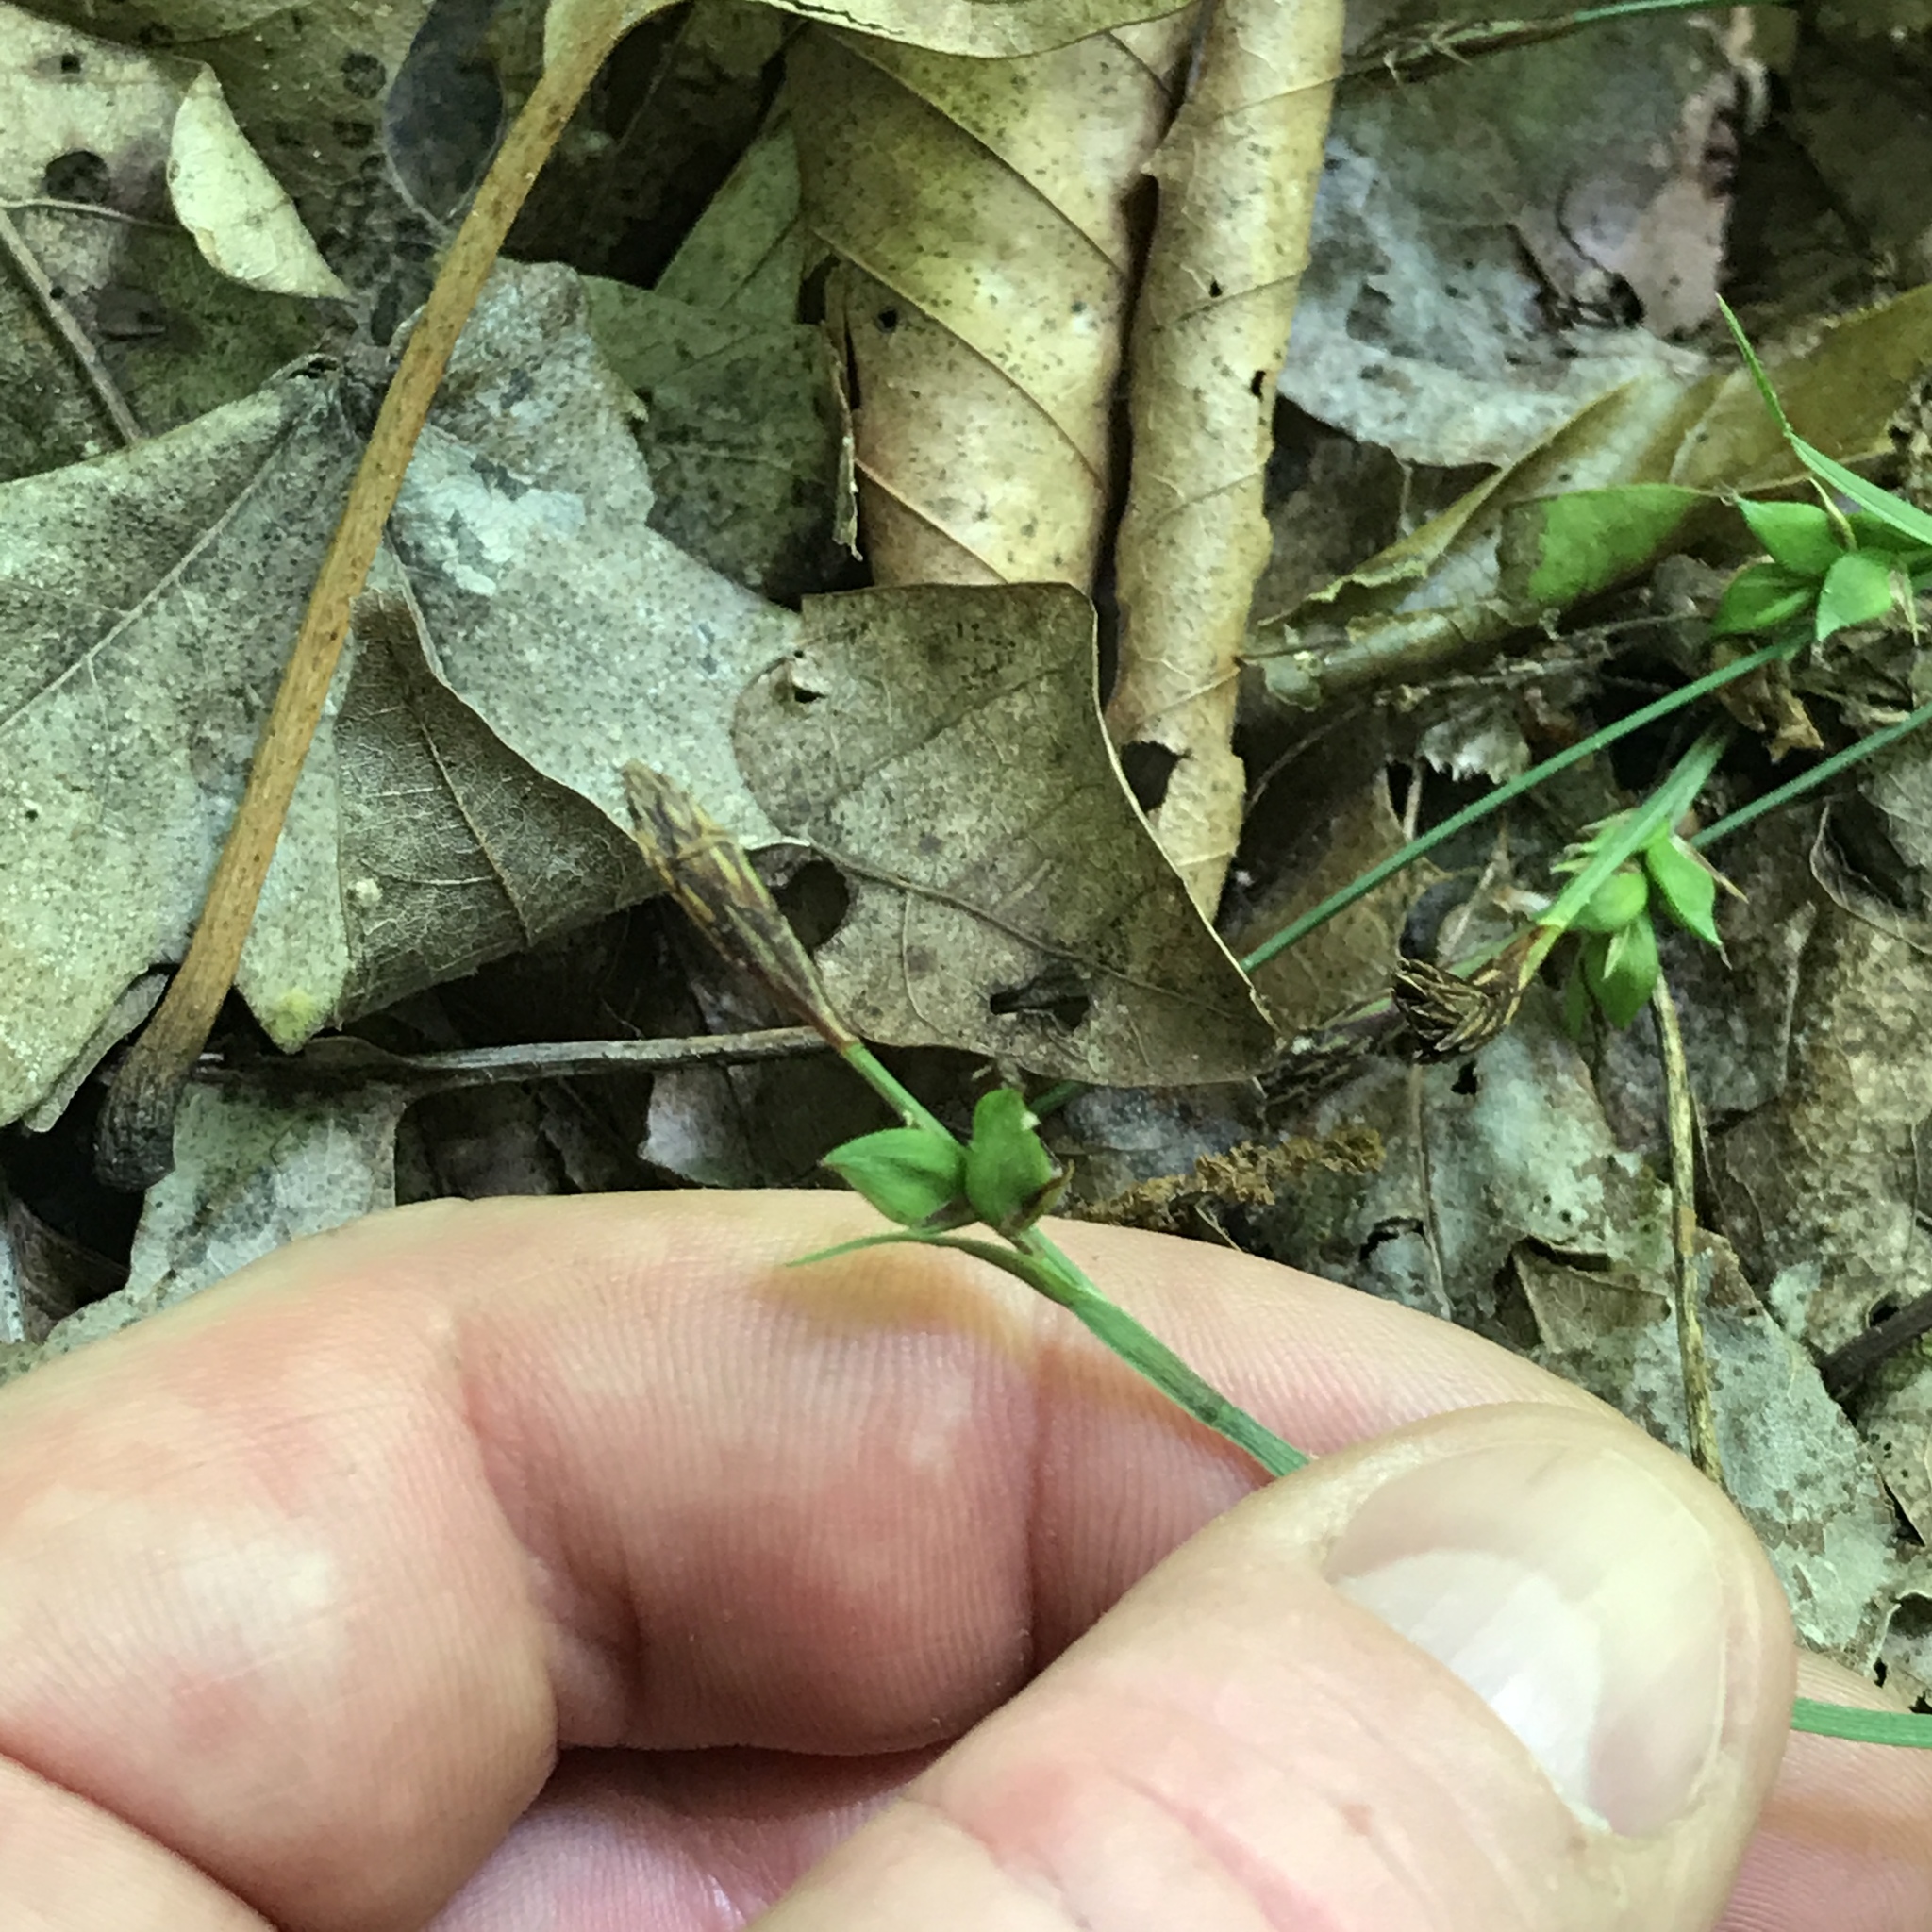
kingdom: Plantae
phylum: Tracheophyta
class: Liliopsida
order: Poales
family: Cyperaceae
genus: Carex
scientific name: Carex careyana
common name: Carey's sedge
